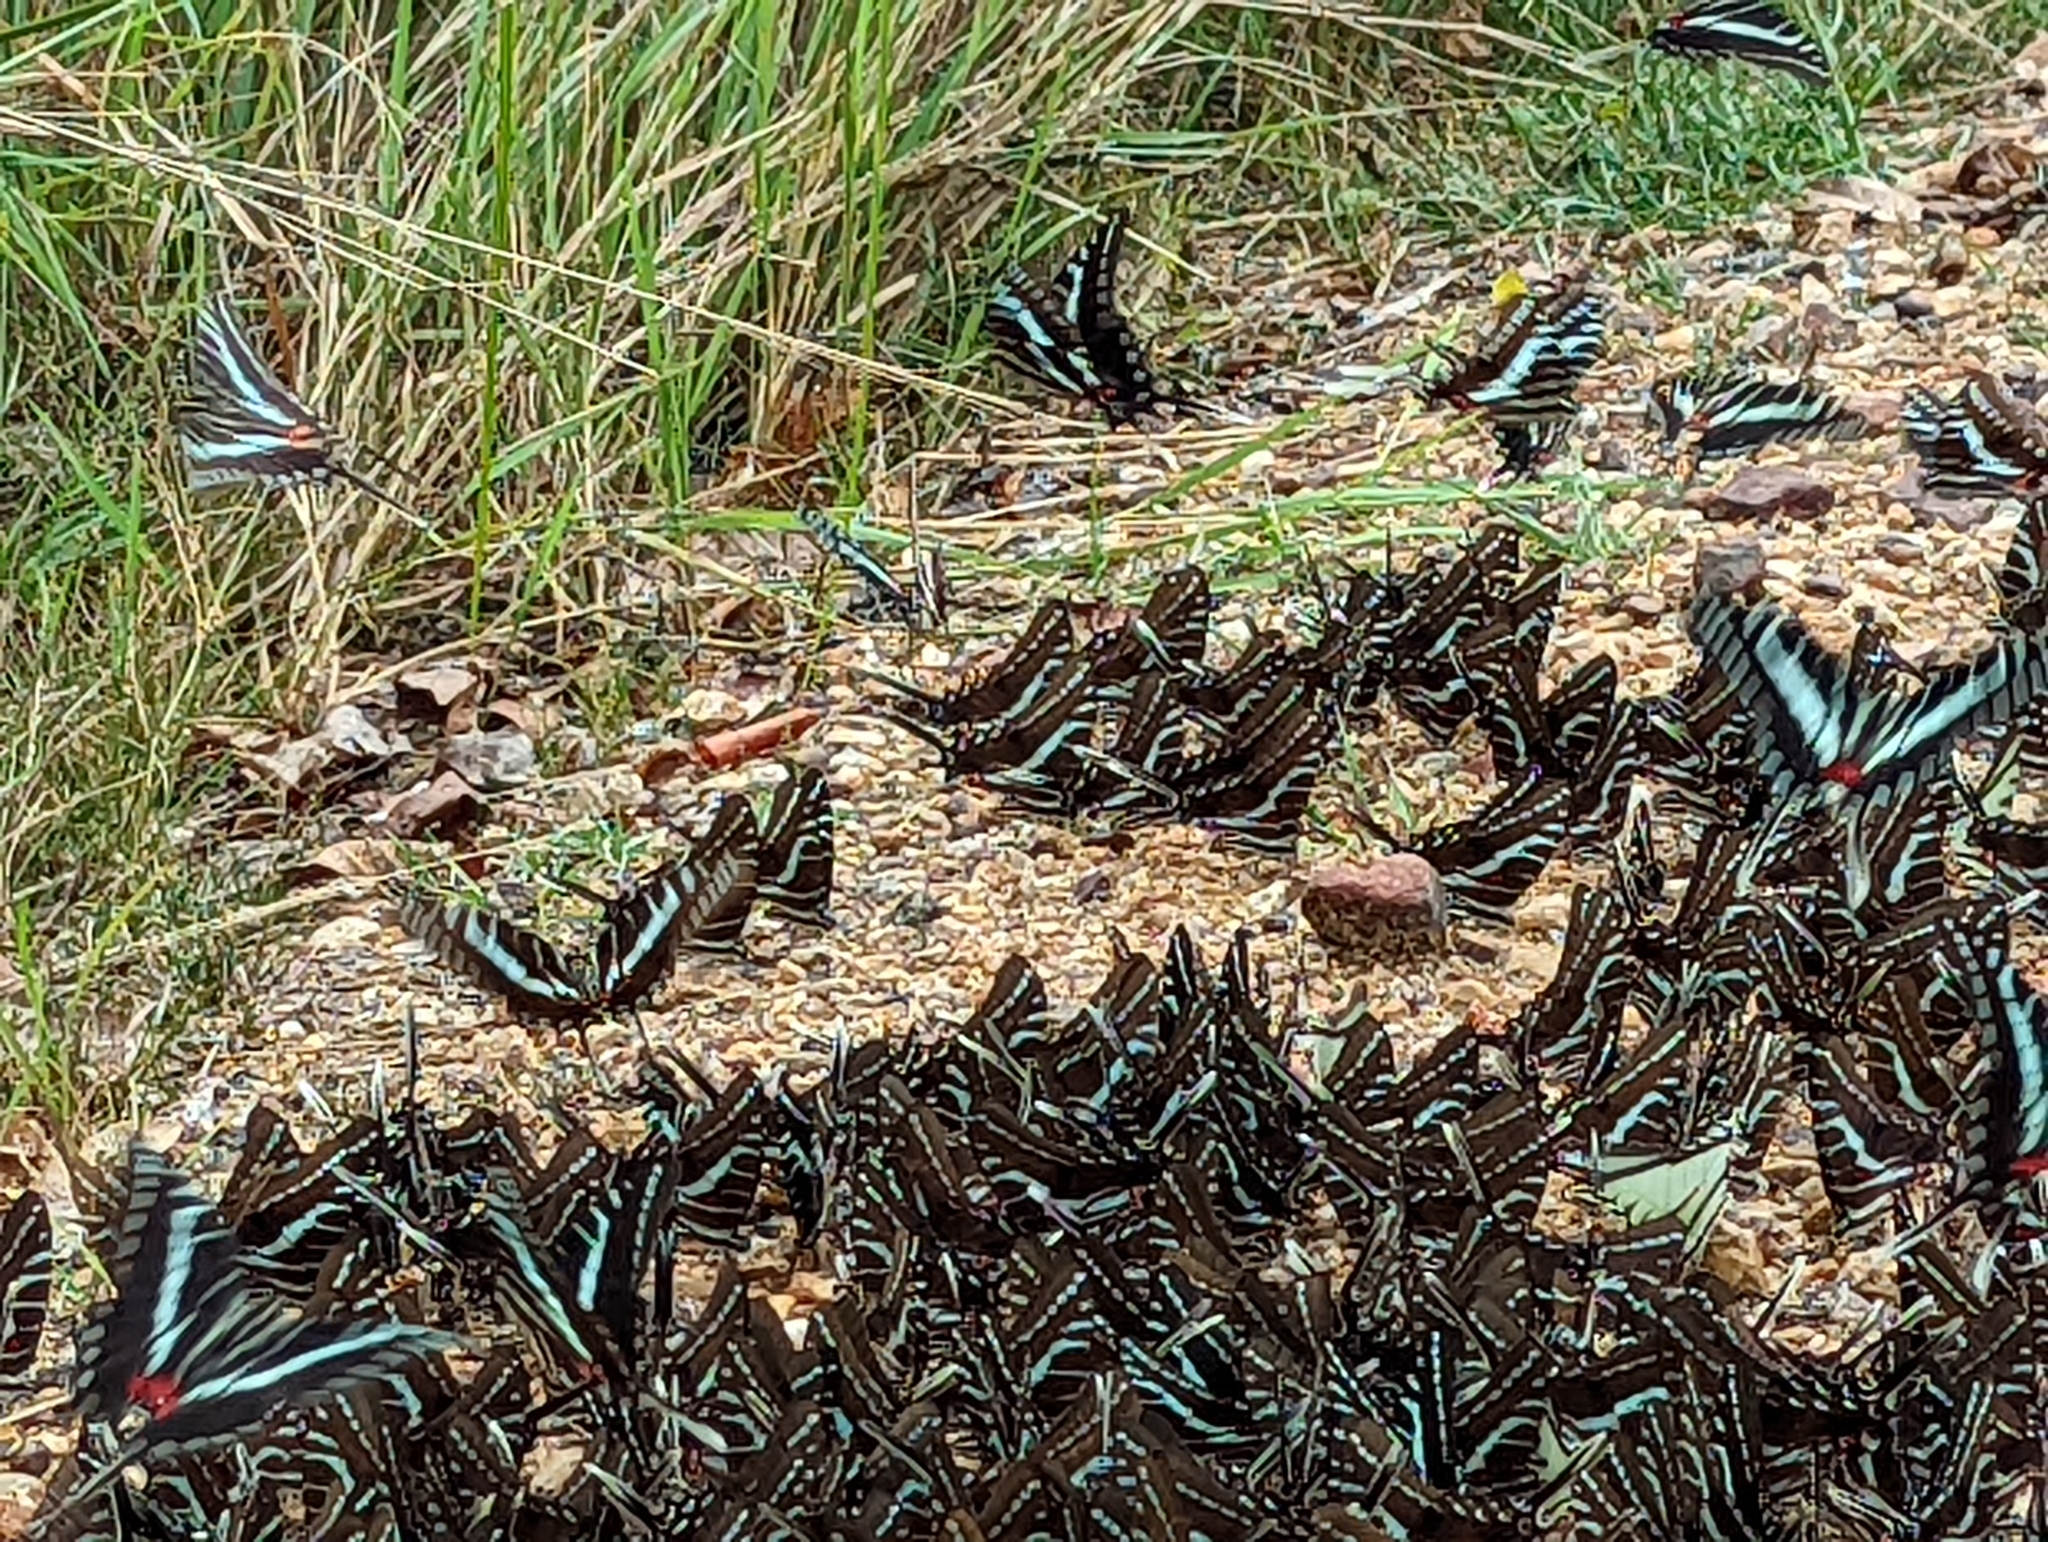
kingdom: Animalia
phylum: Arthropoda
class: Insecta
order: Lepidoptera
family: Papilionidae
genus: Protographium
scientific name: Protographium philolaus
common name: Dark zebra swallowtail
